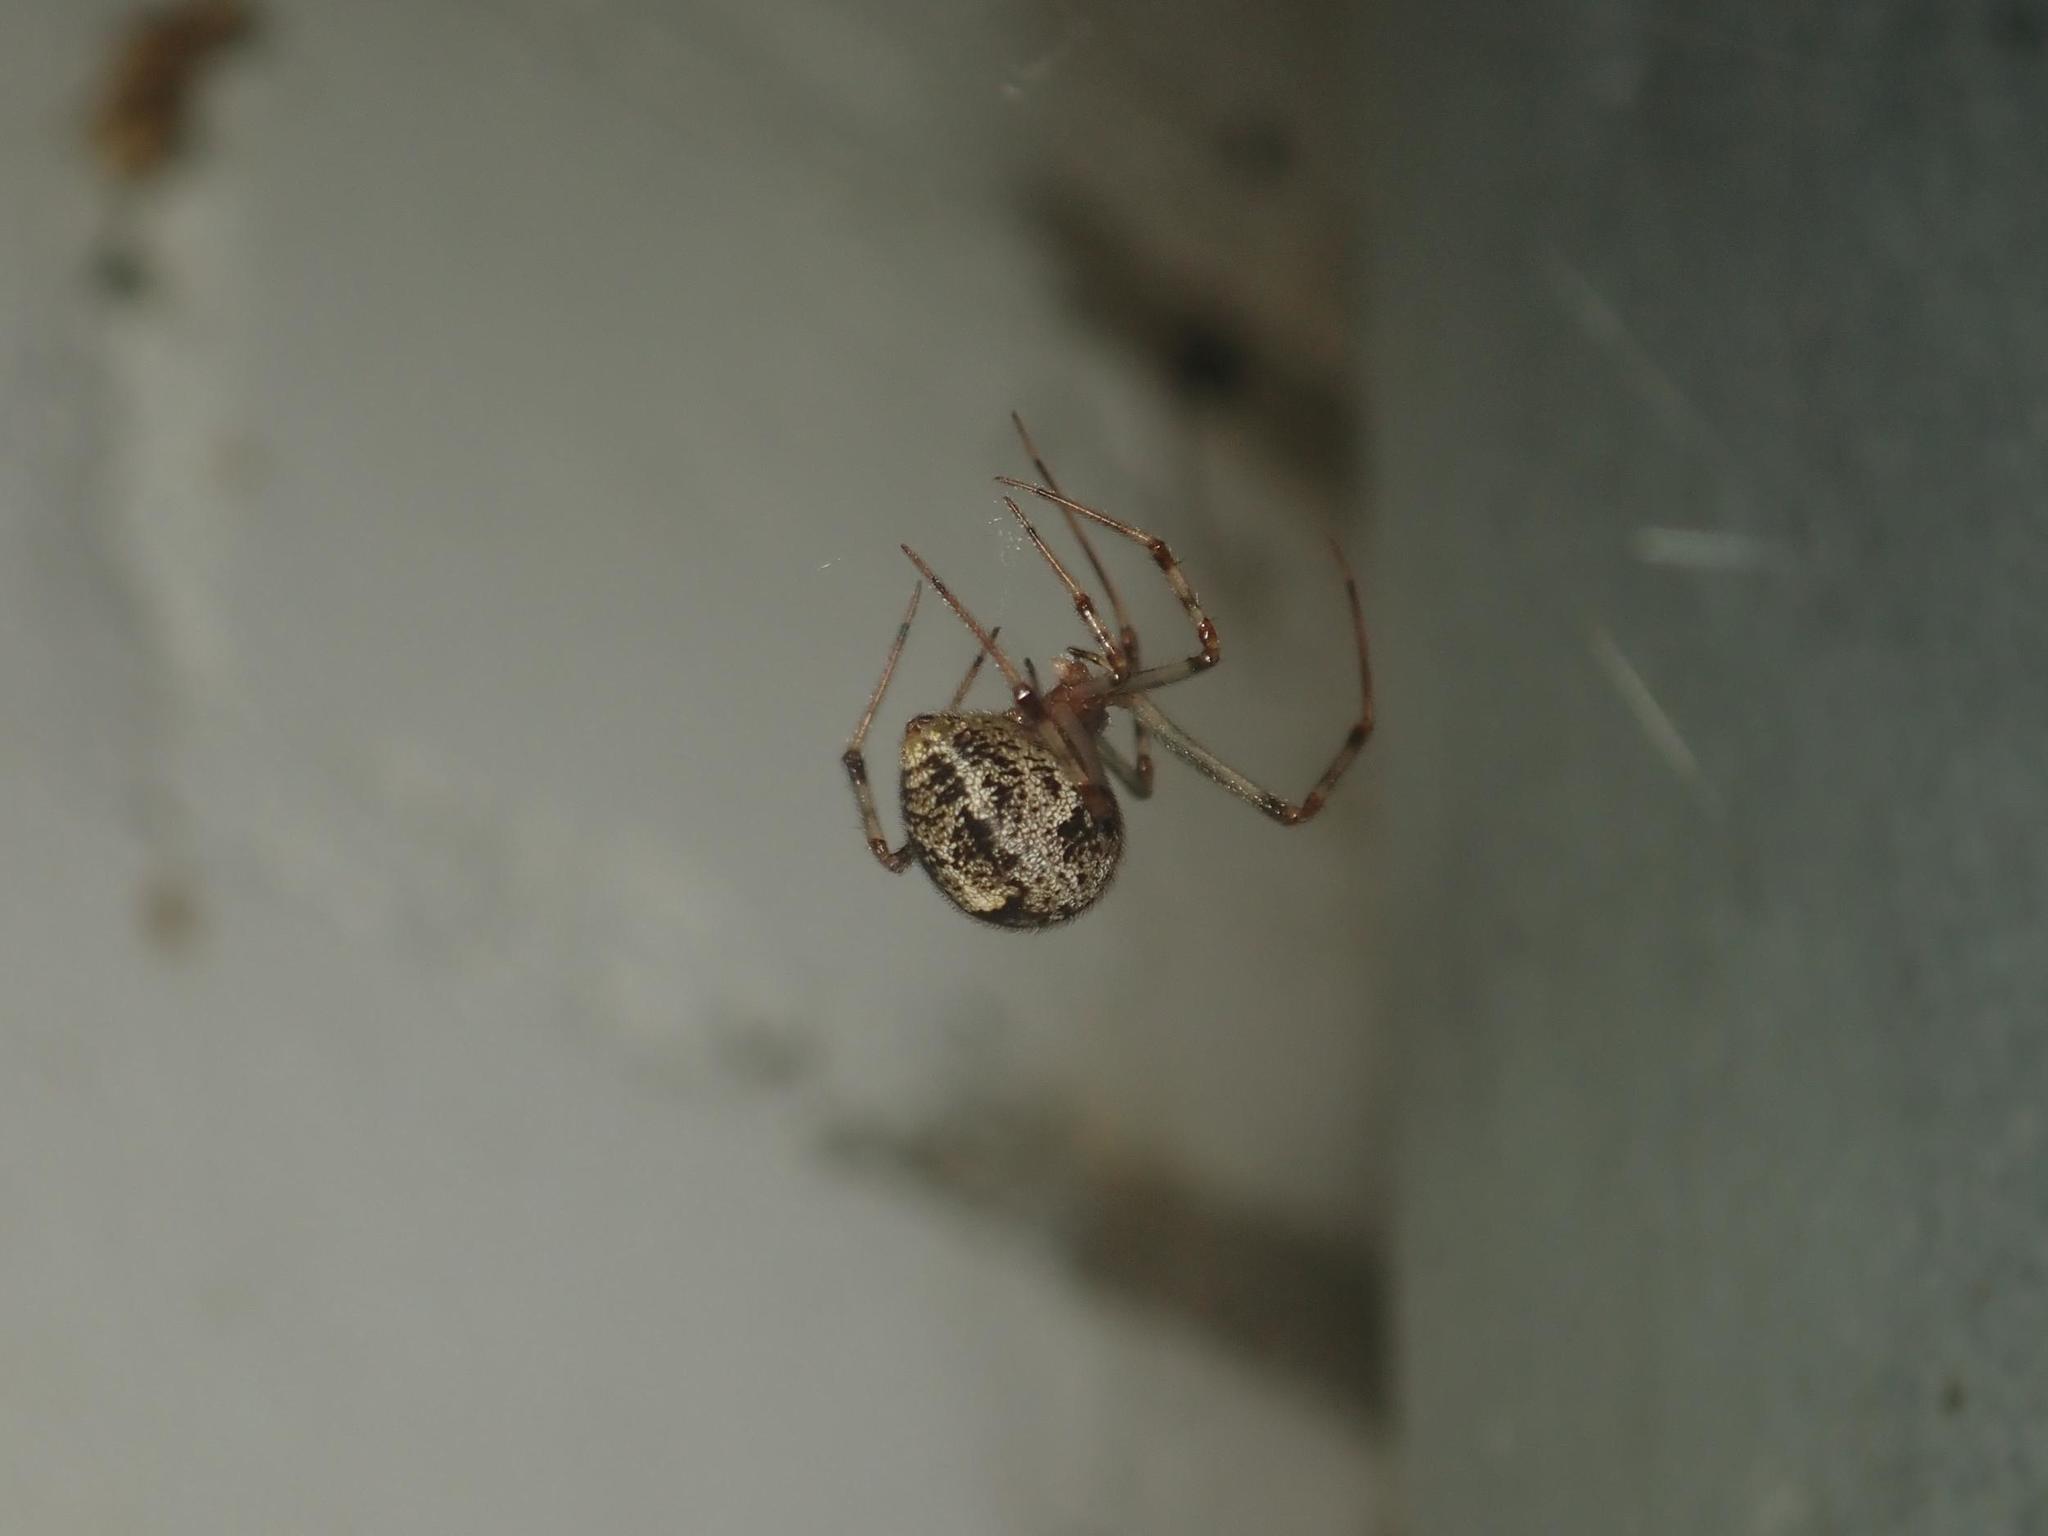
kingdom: Animalia
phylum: Arthropoda
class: Arachnida
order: Araneae
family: Theridiidae
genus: Parasteatoda
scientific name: Parasteatoda tepidariorum
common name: Common house spider
